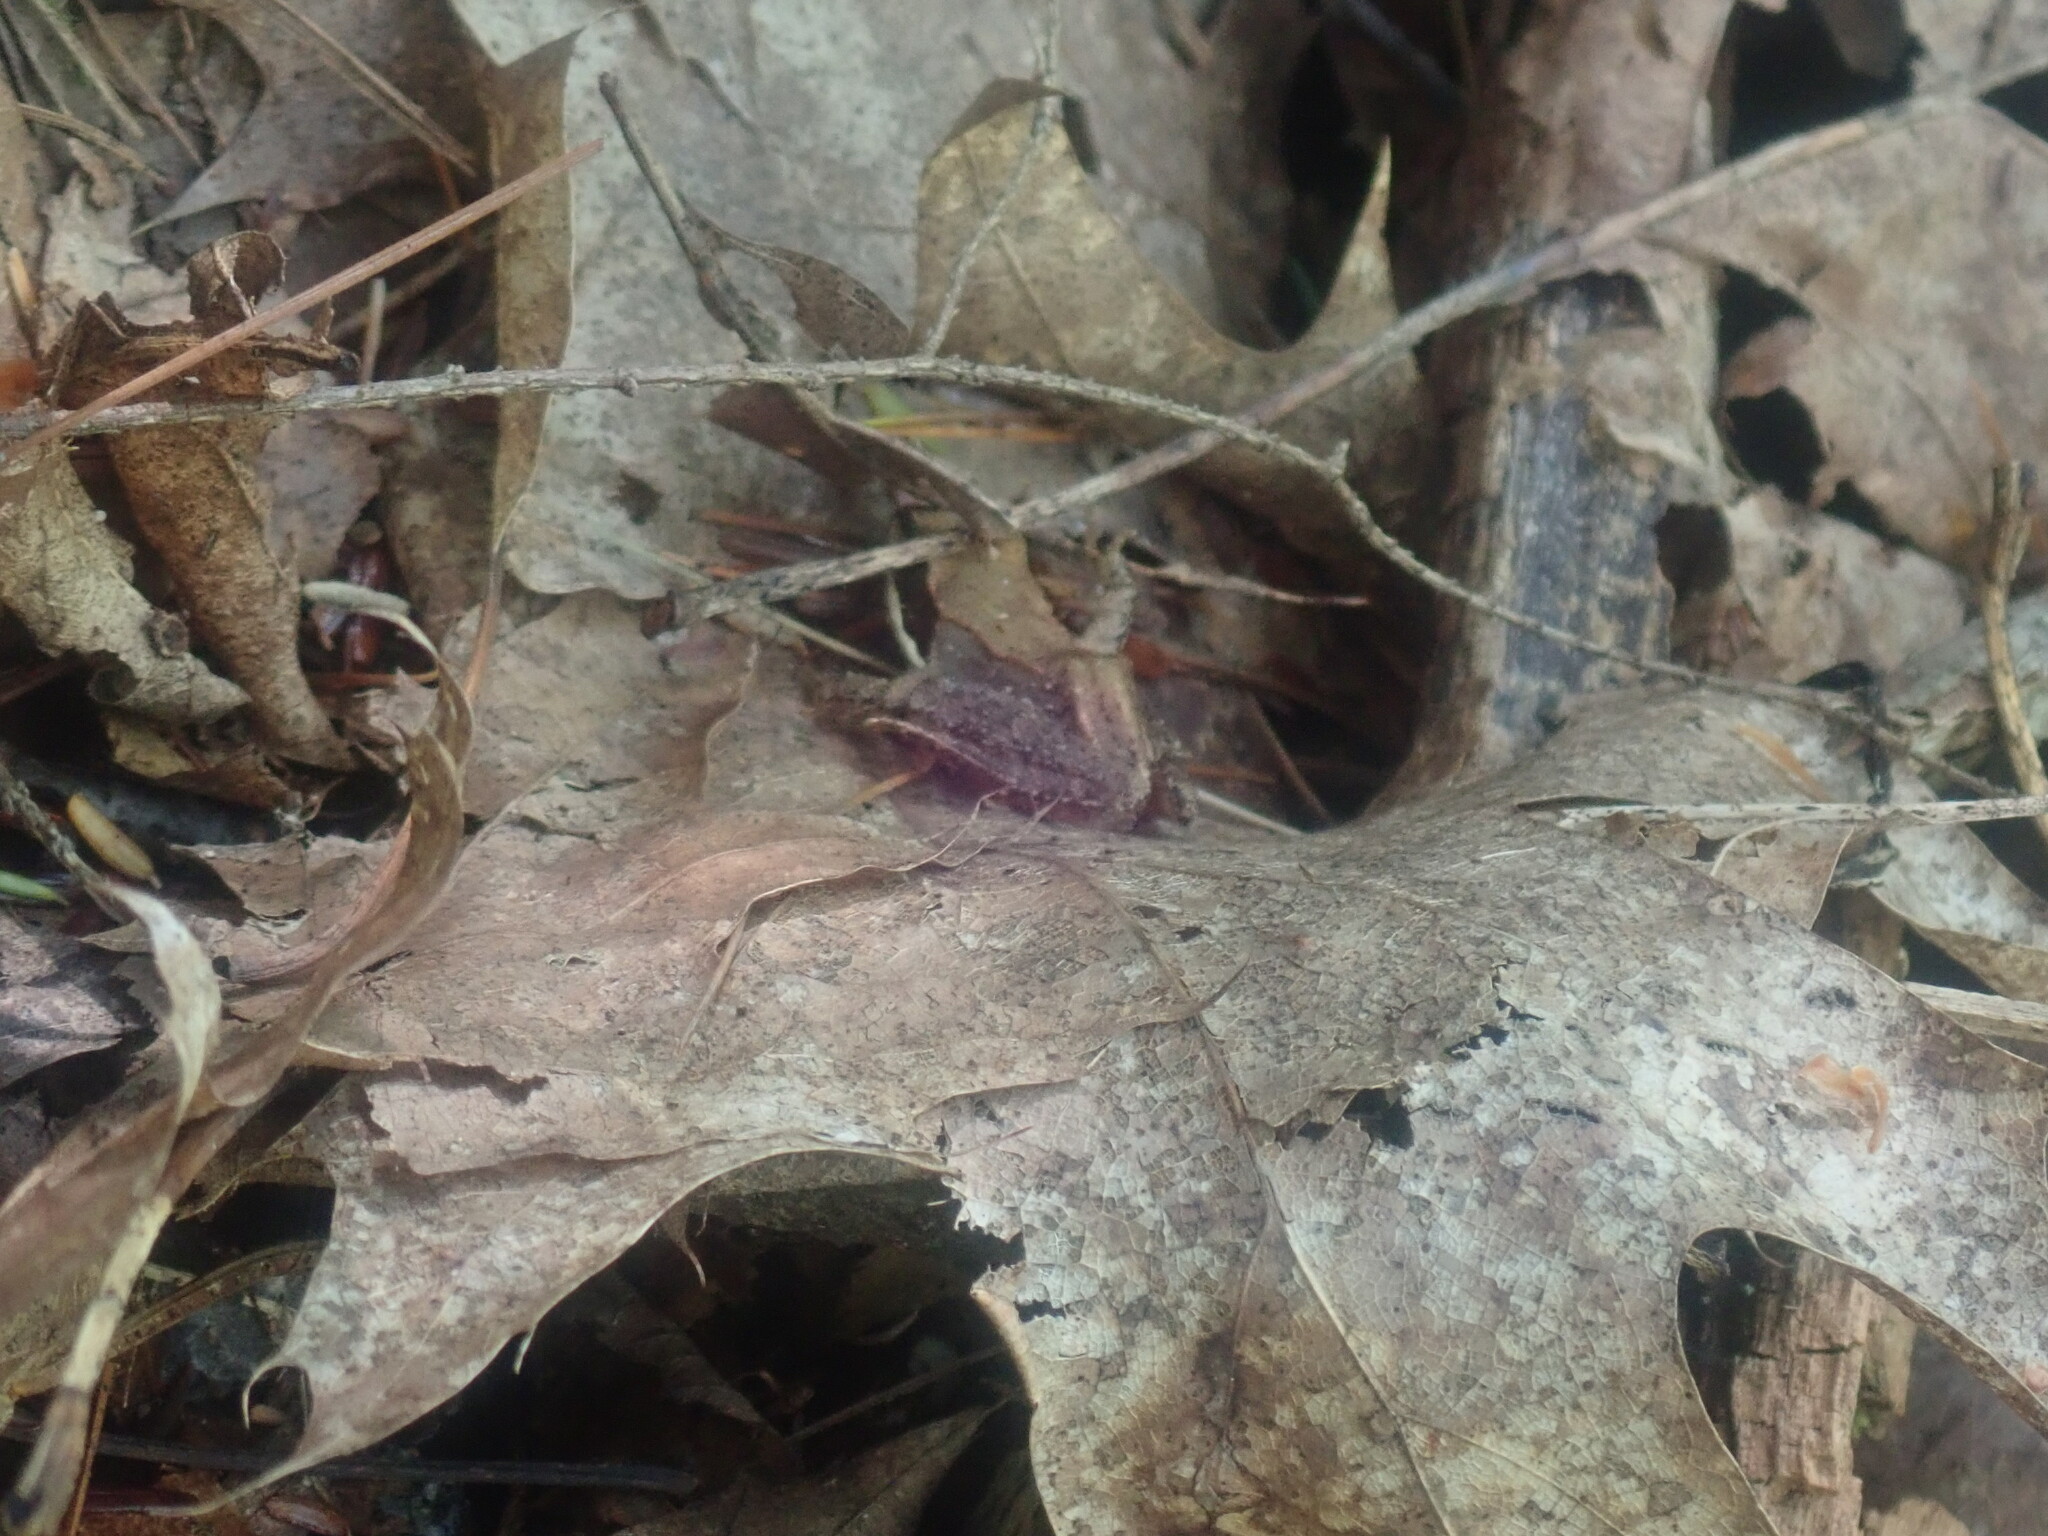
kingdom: Animalia
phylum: Chordata
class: Amphibia
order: Anura
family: Ranidae
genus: Lithobates
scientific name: Lithobates sylvaticus
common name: Wood frog
